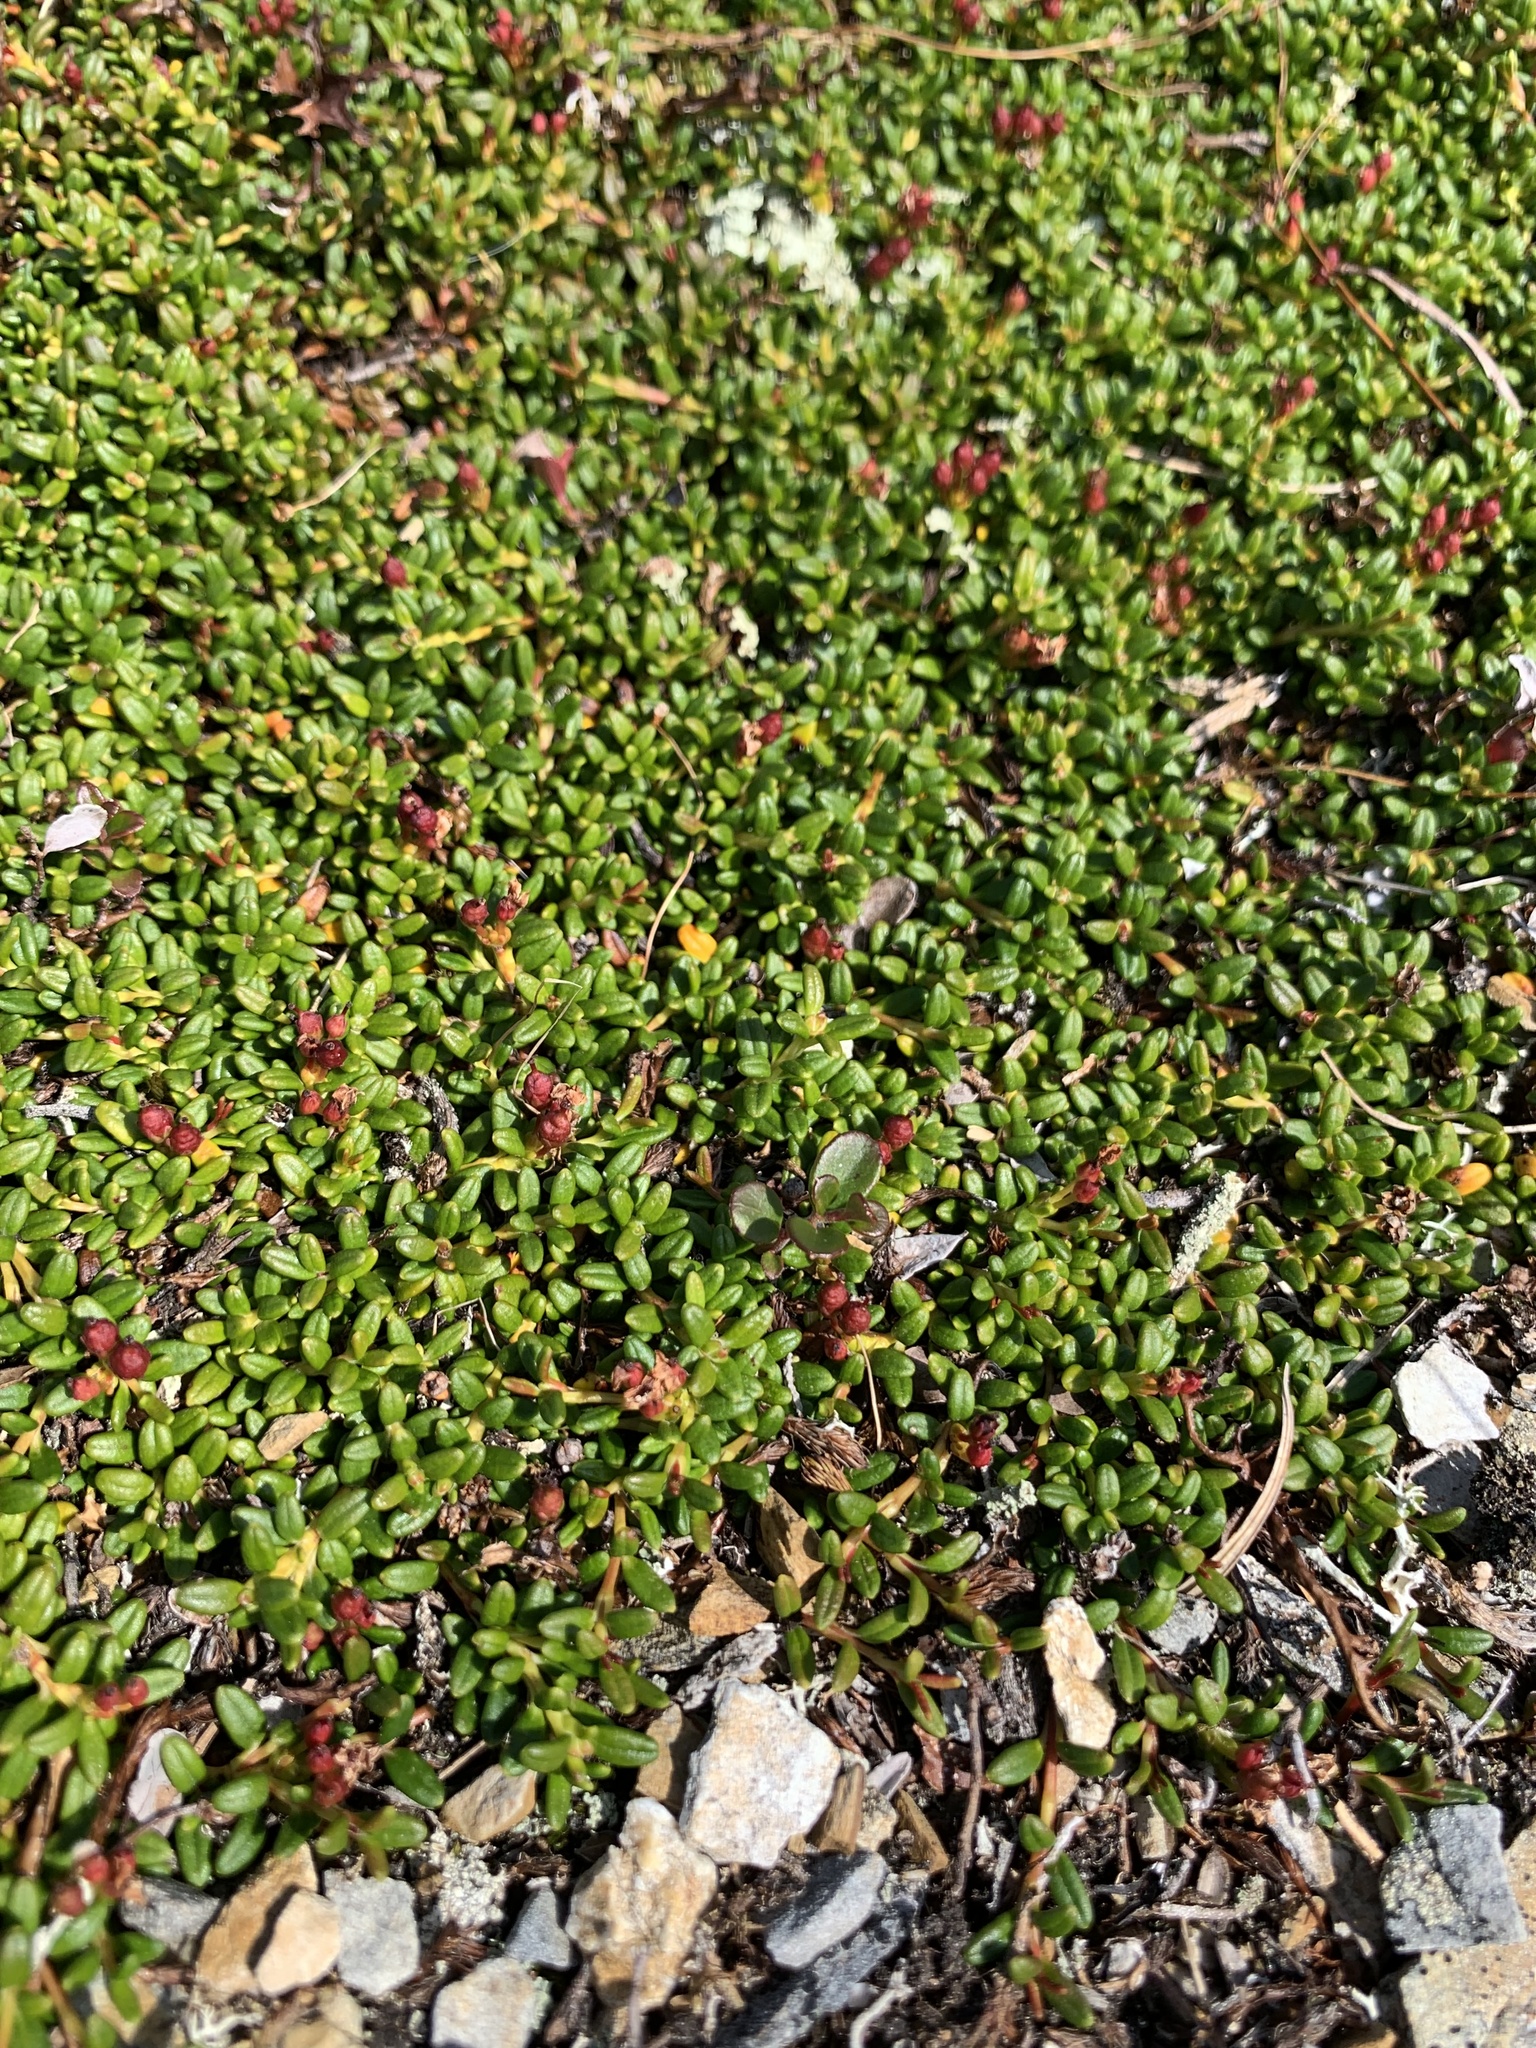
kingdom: Plantae
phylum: Tracheophyta
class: Magnoliopsida
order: Ericales
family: Ericaceae
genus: Kalmia
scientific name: Kalmia procumbens
